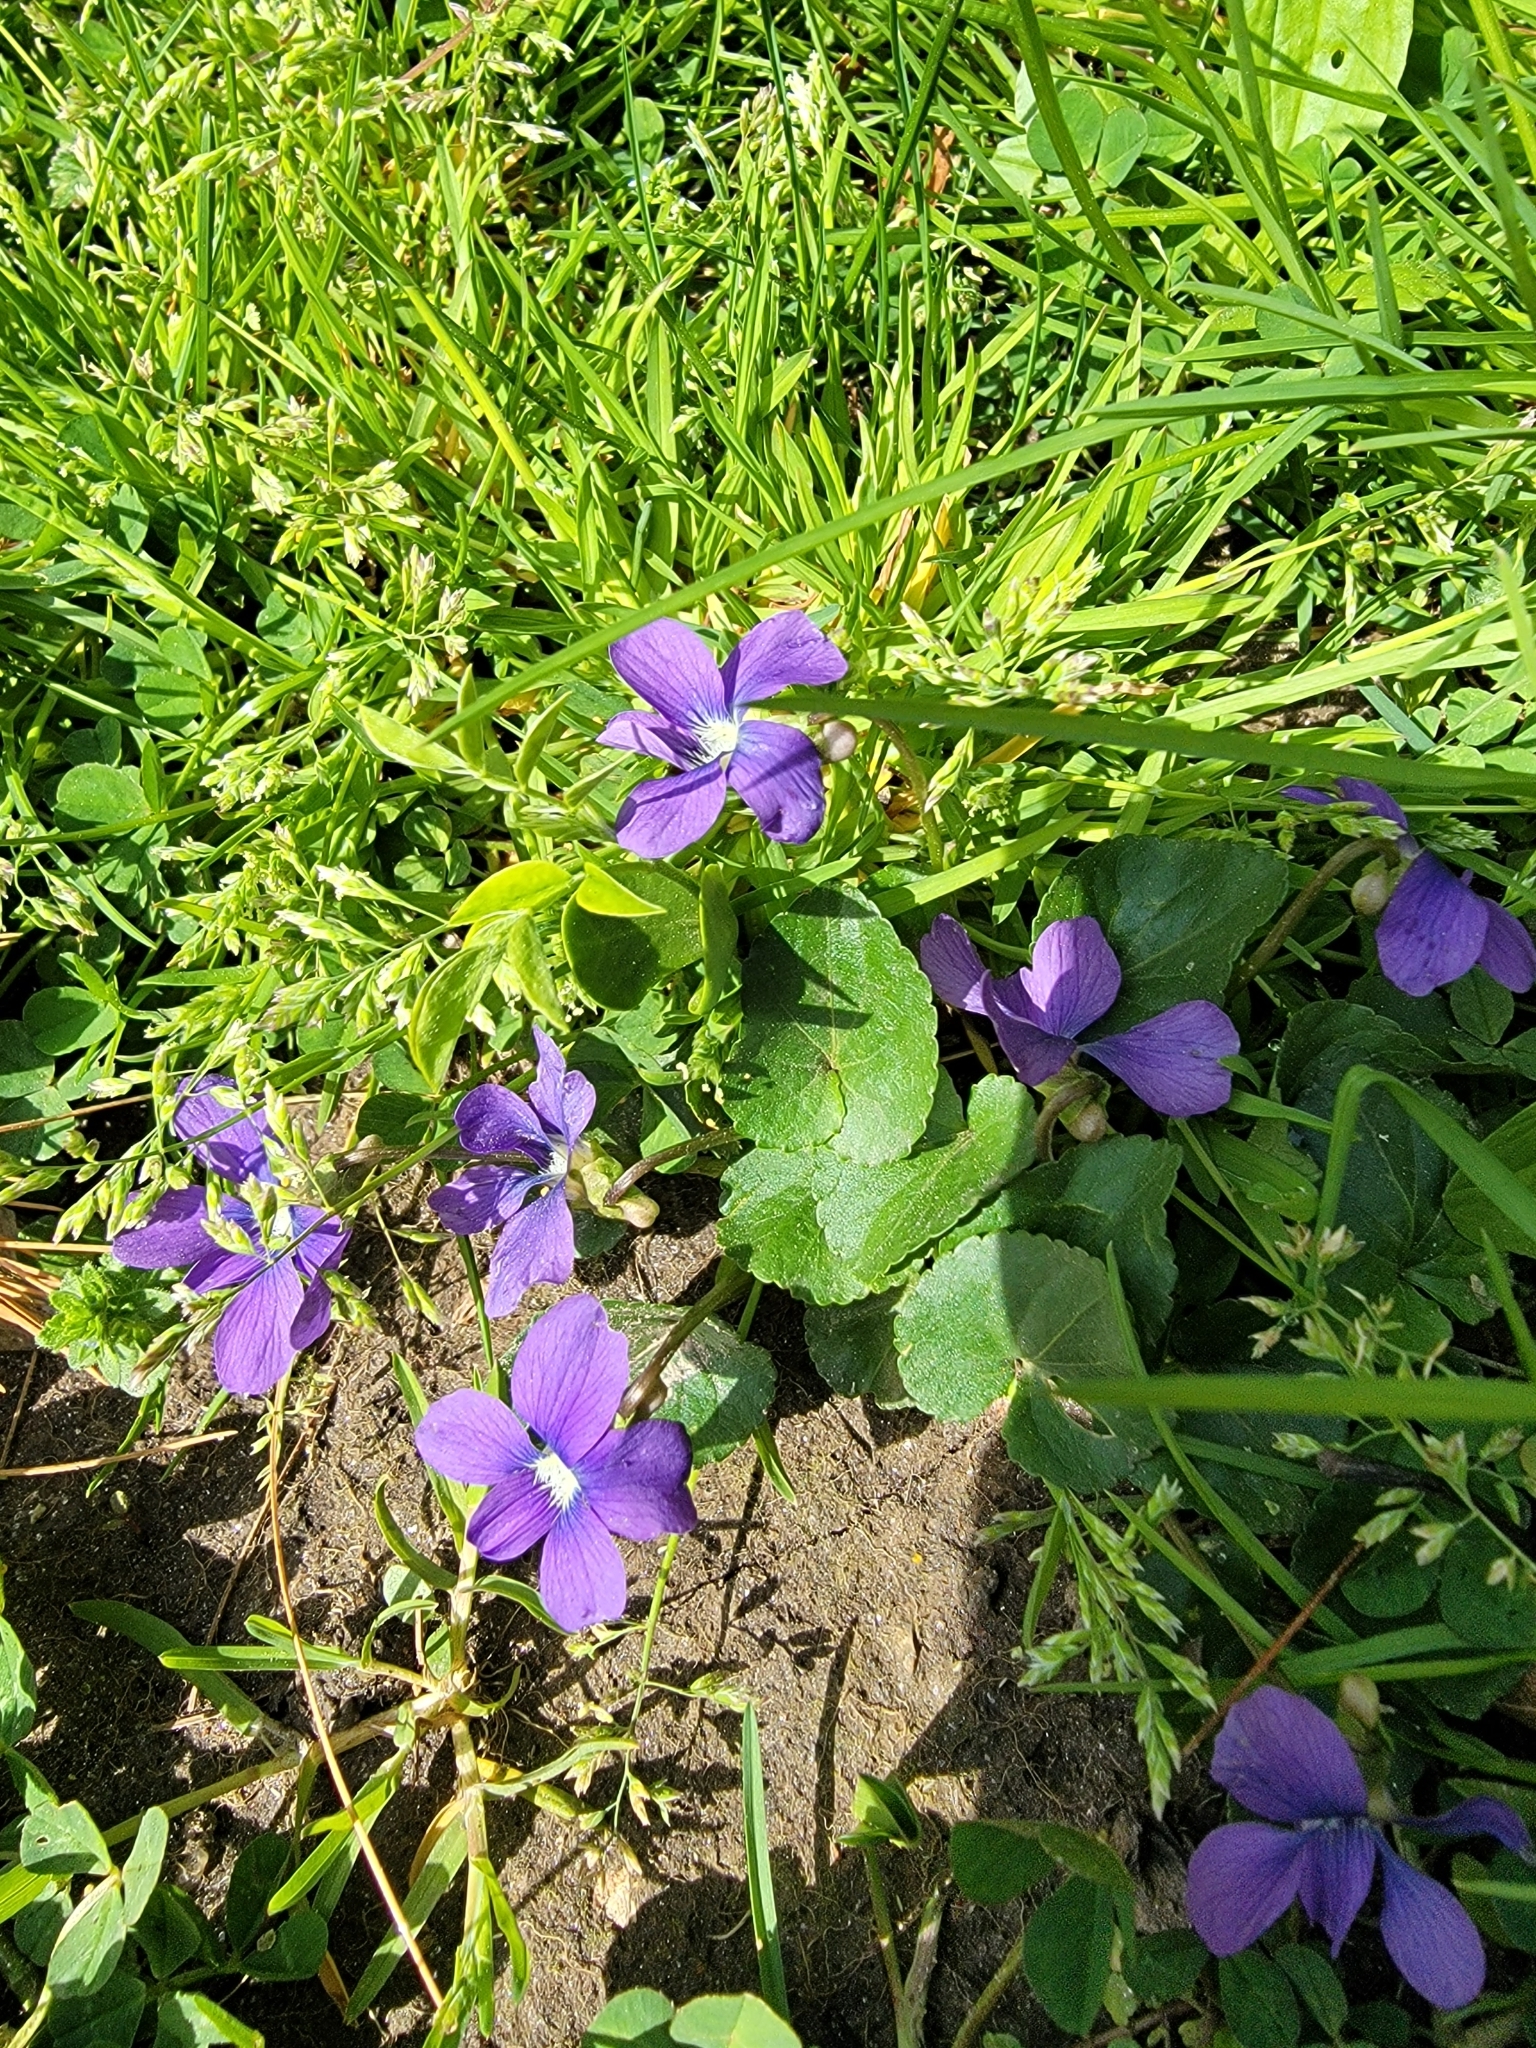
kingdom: Plantae
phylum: Tracheophyta
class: Magnoliopsida
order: Malpighiales
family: Violaceae
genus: Viola
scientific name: Viola sororia
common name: Dooryard violet
